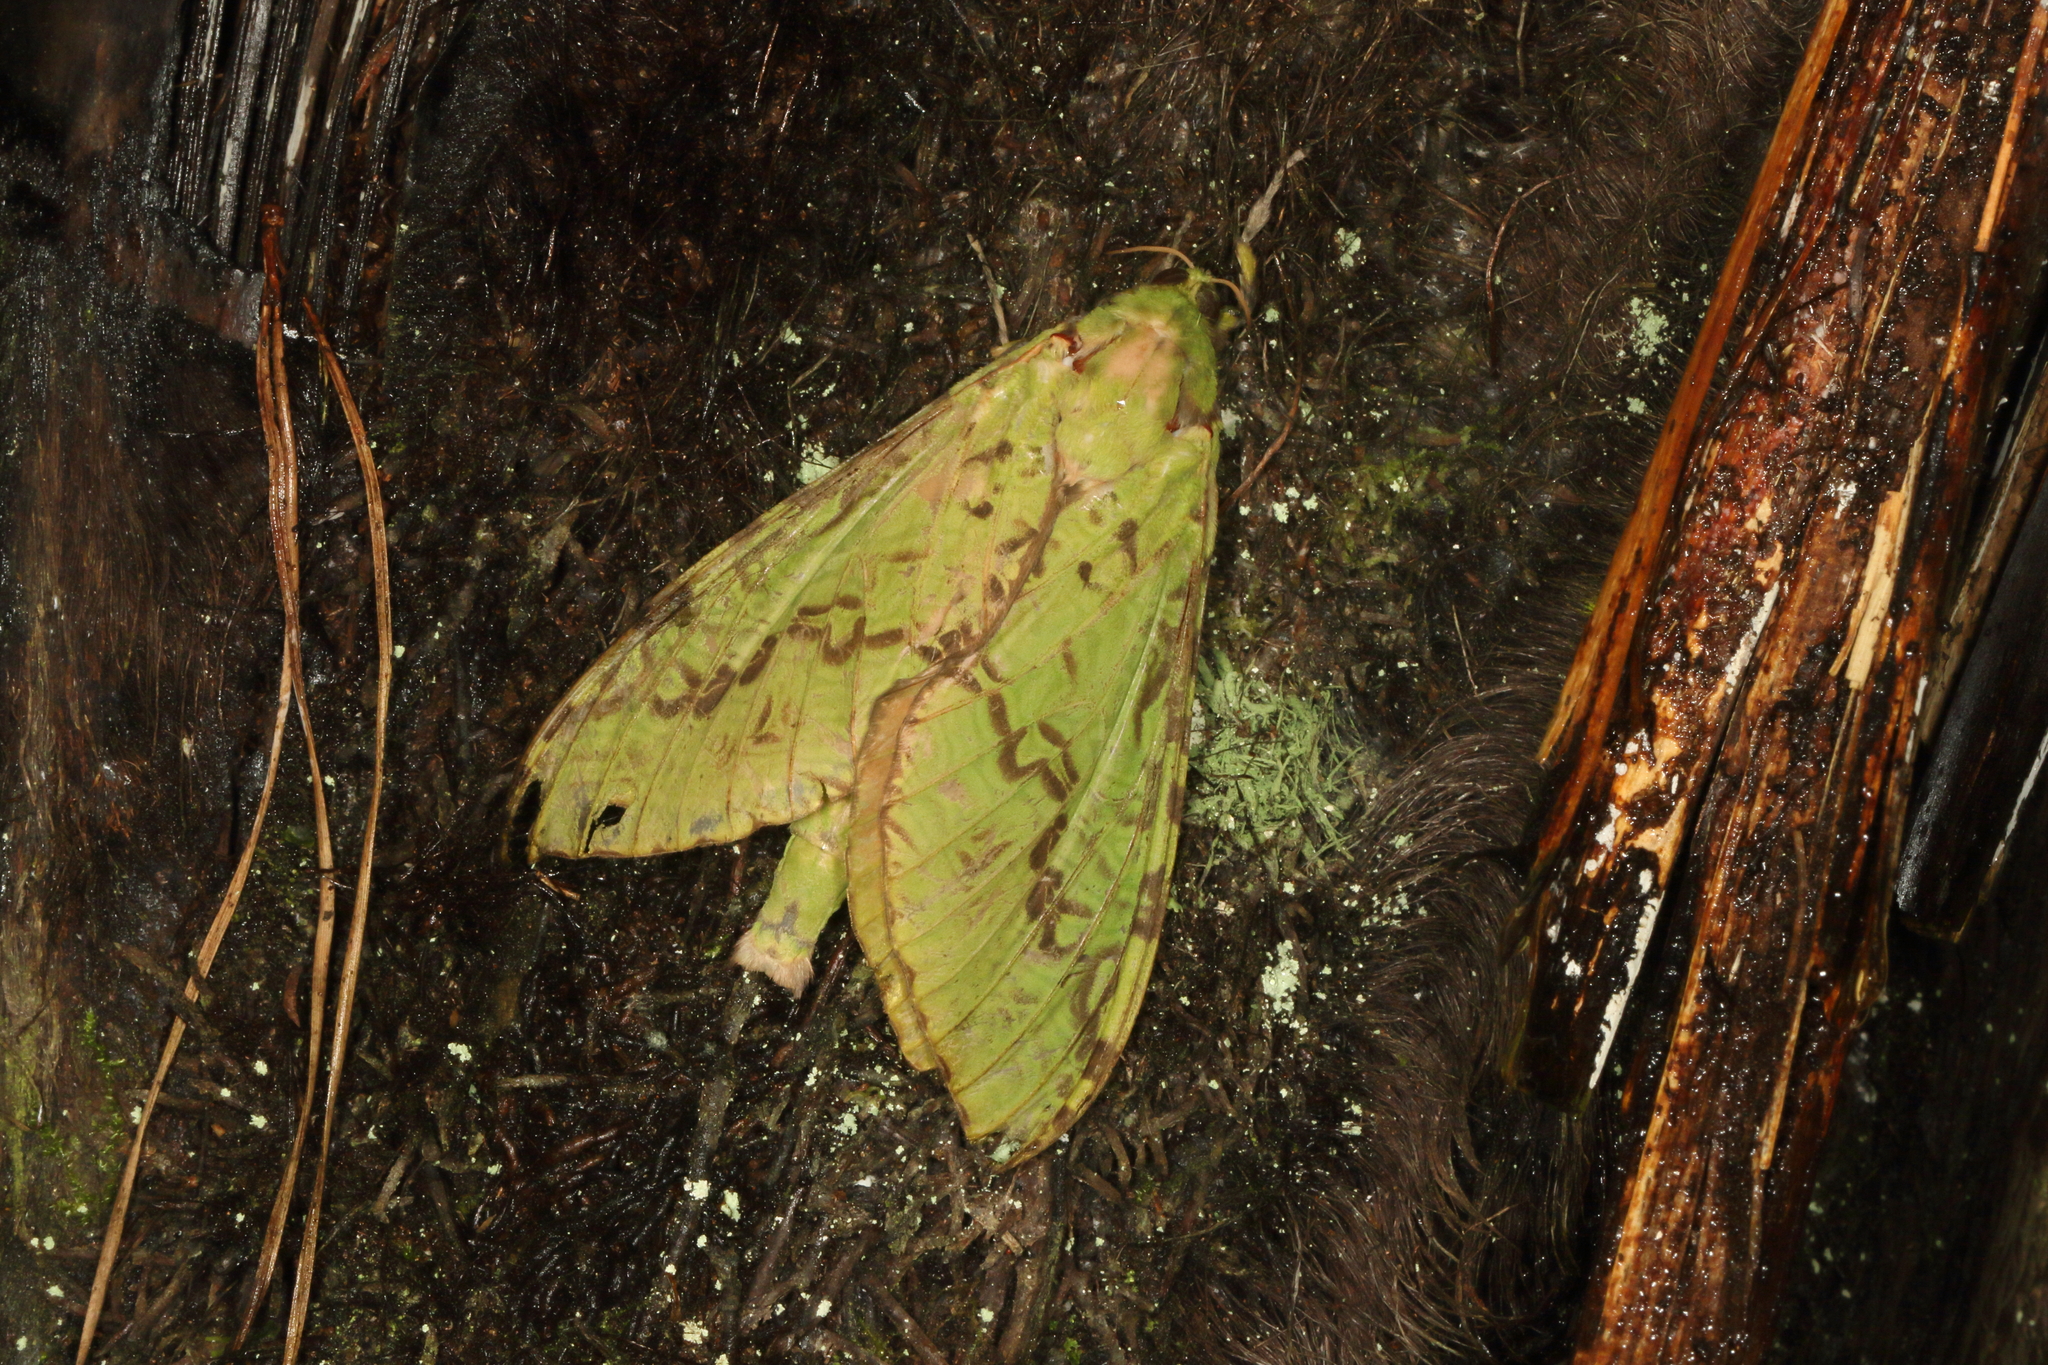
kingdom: Animalia
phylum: Arthropoda
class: Insecta
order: Lepidoptera
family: Hepialidae
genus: Aenetus
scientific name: Aenetus virescens
